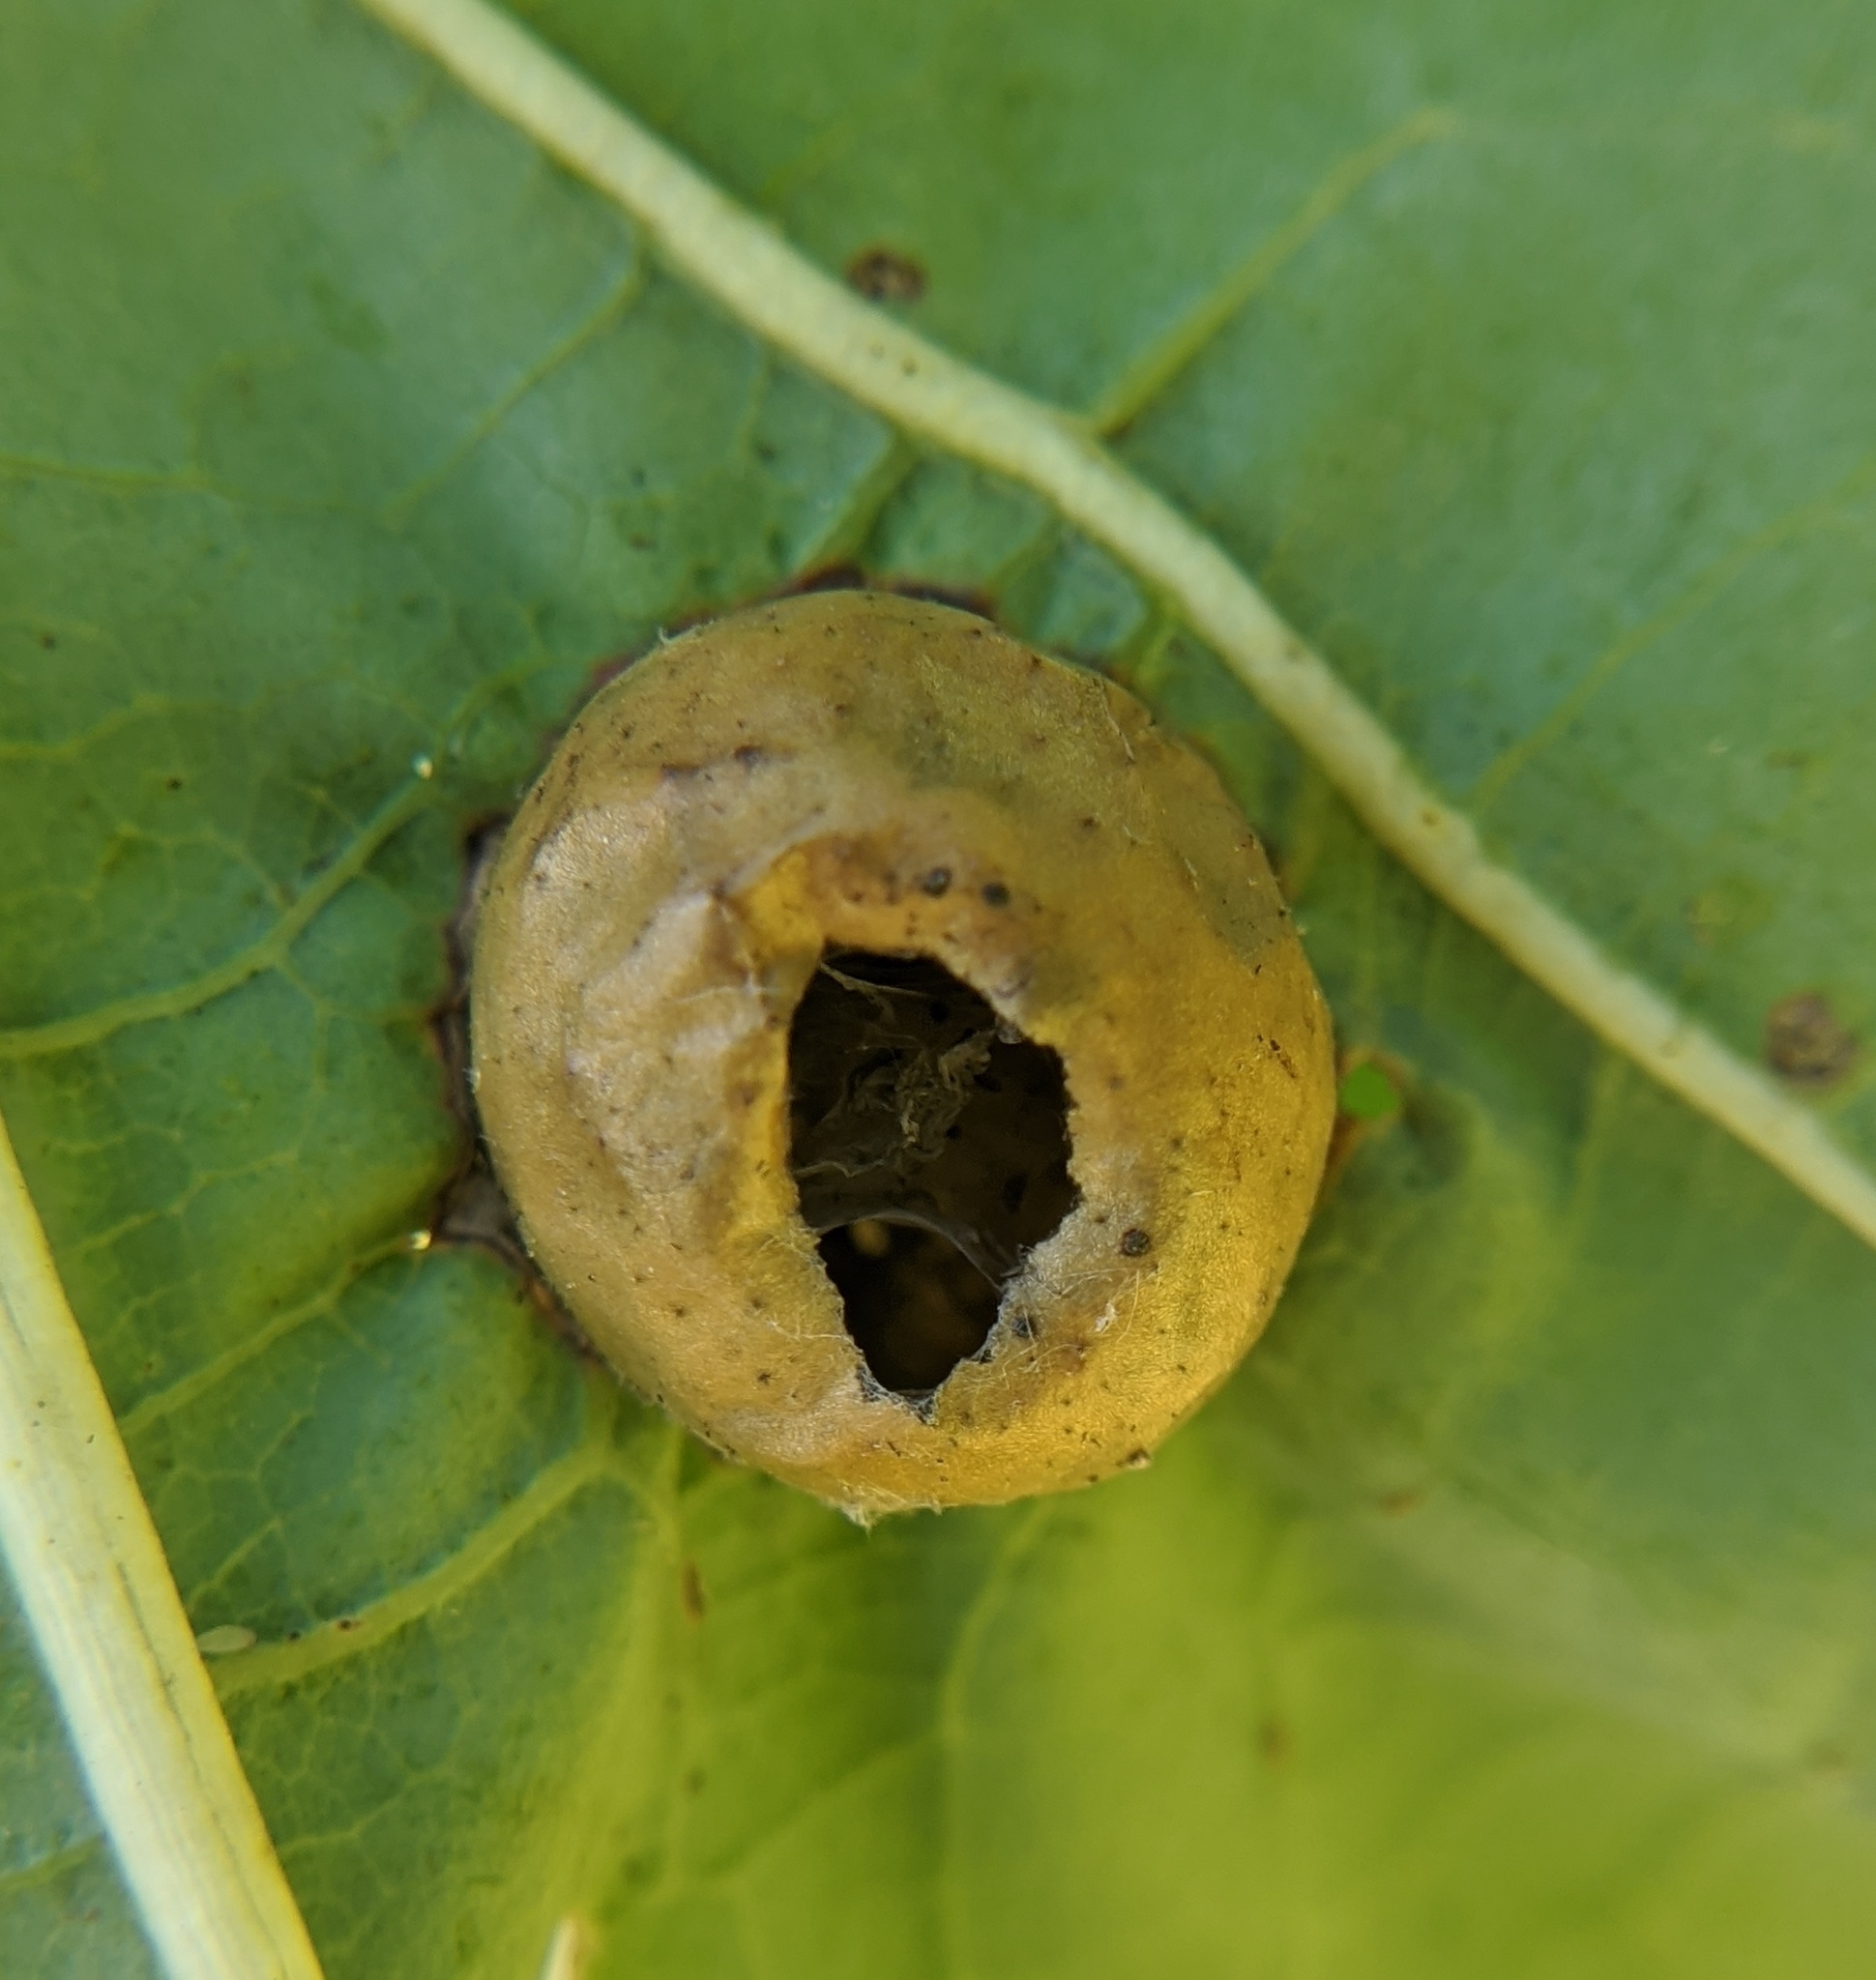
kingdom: Animalia
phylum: Arthropoda
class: Insecta
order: Hymenoptera
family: Cynipidae
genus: Amphibolips
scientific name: Amphibolips
